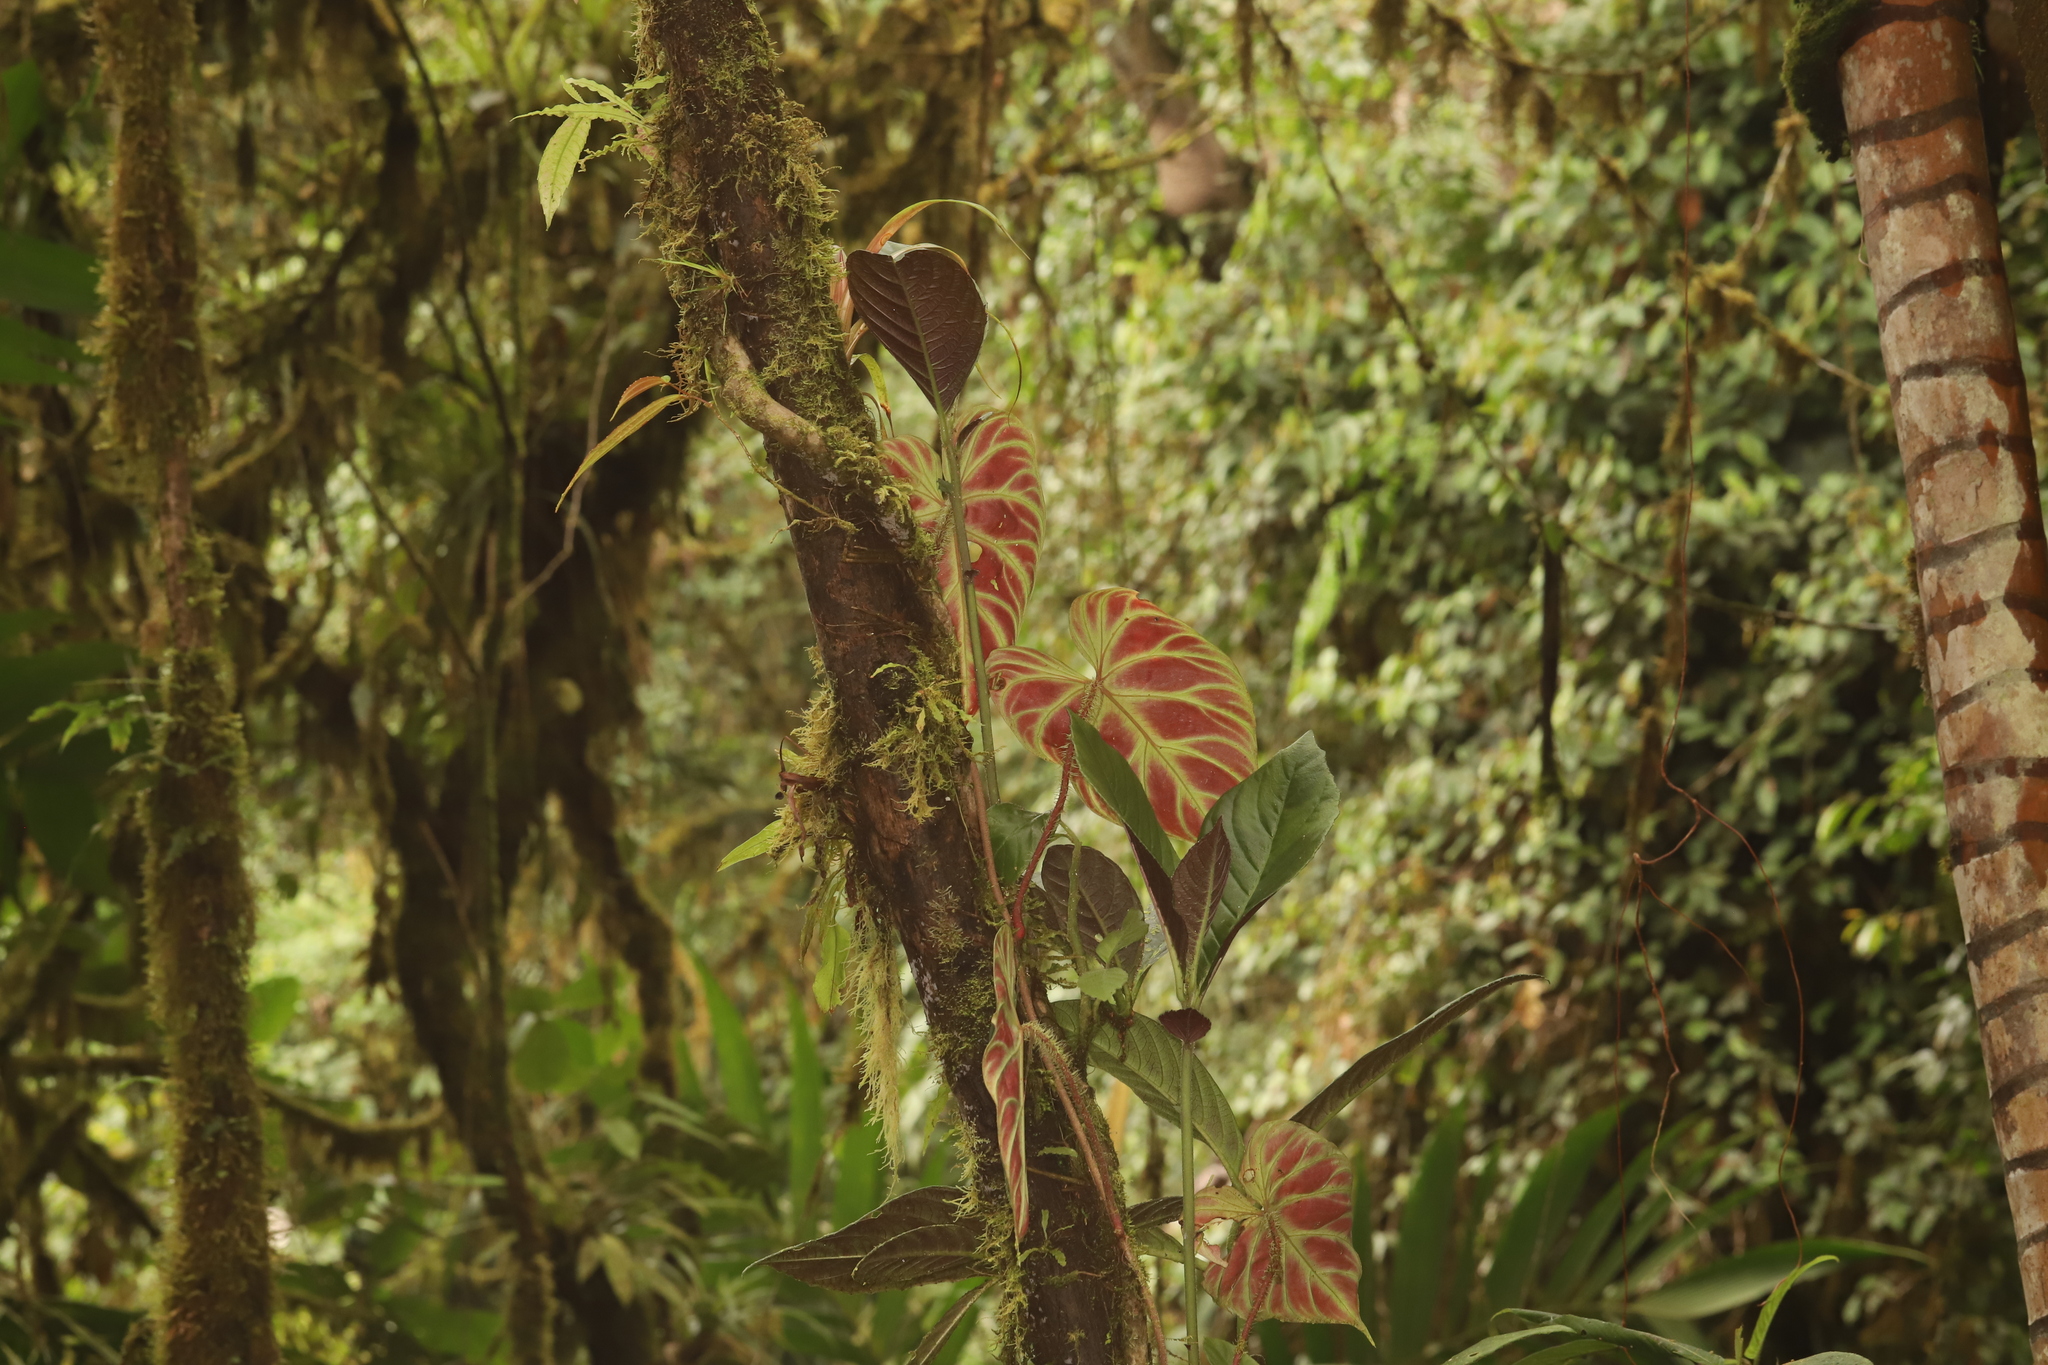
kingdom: Plantae
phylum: Tracheophyta
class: Liliopsida
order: Alismatales
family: Araceae
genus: Philodendron
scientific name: Philodendron verrucosum
